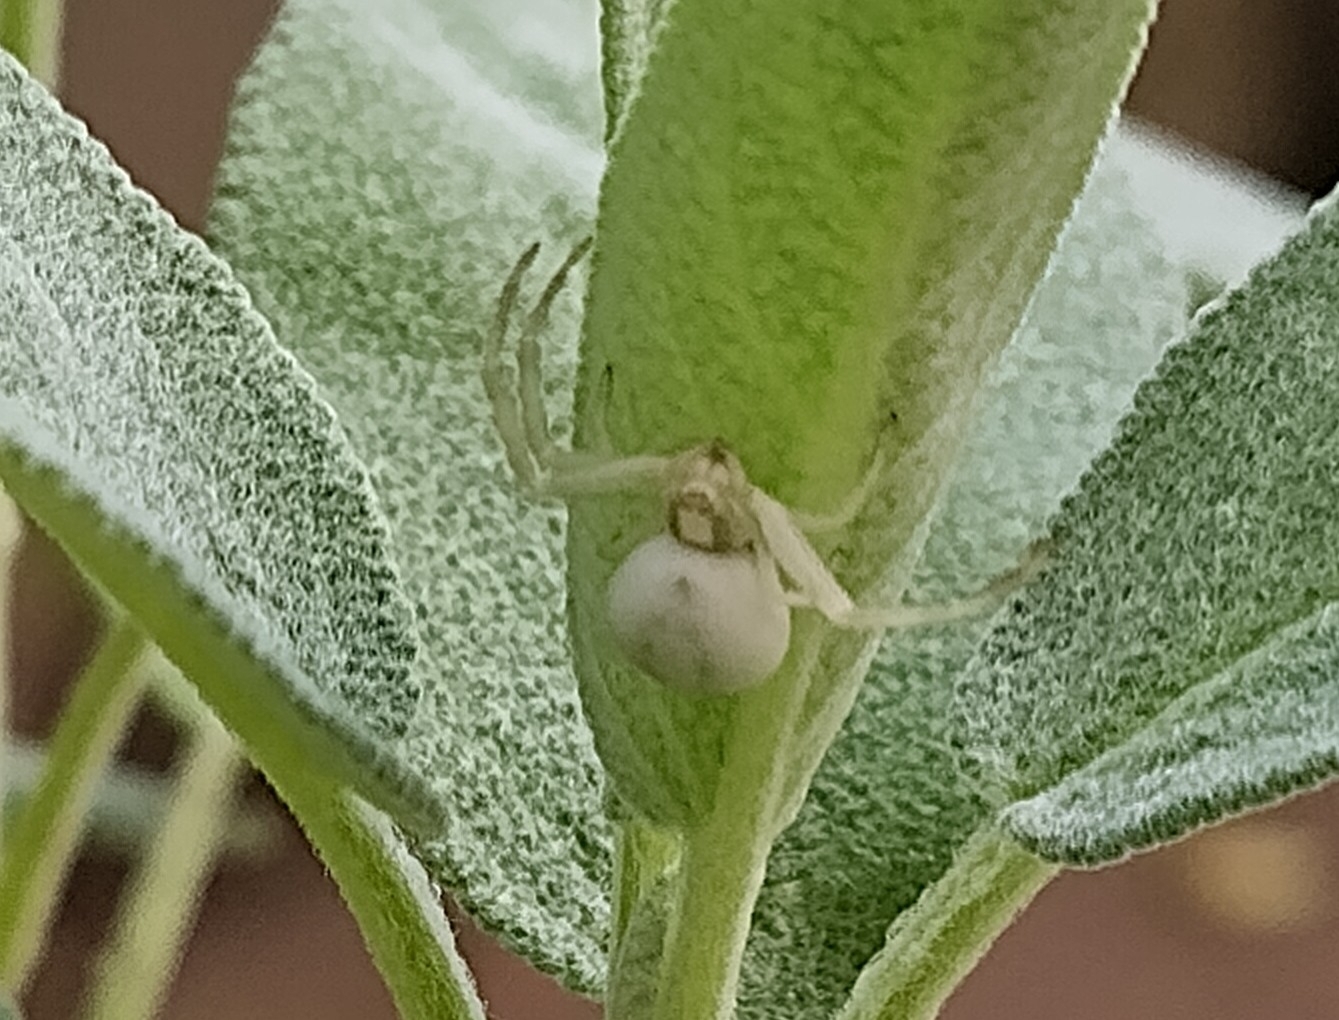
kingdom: Animalia
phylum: Arthropoda
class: Arachnida
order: Araneae
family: Thomisidae
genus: Misumena
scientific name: Misumena vatia
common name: Goldenrod crab spider
